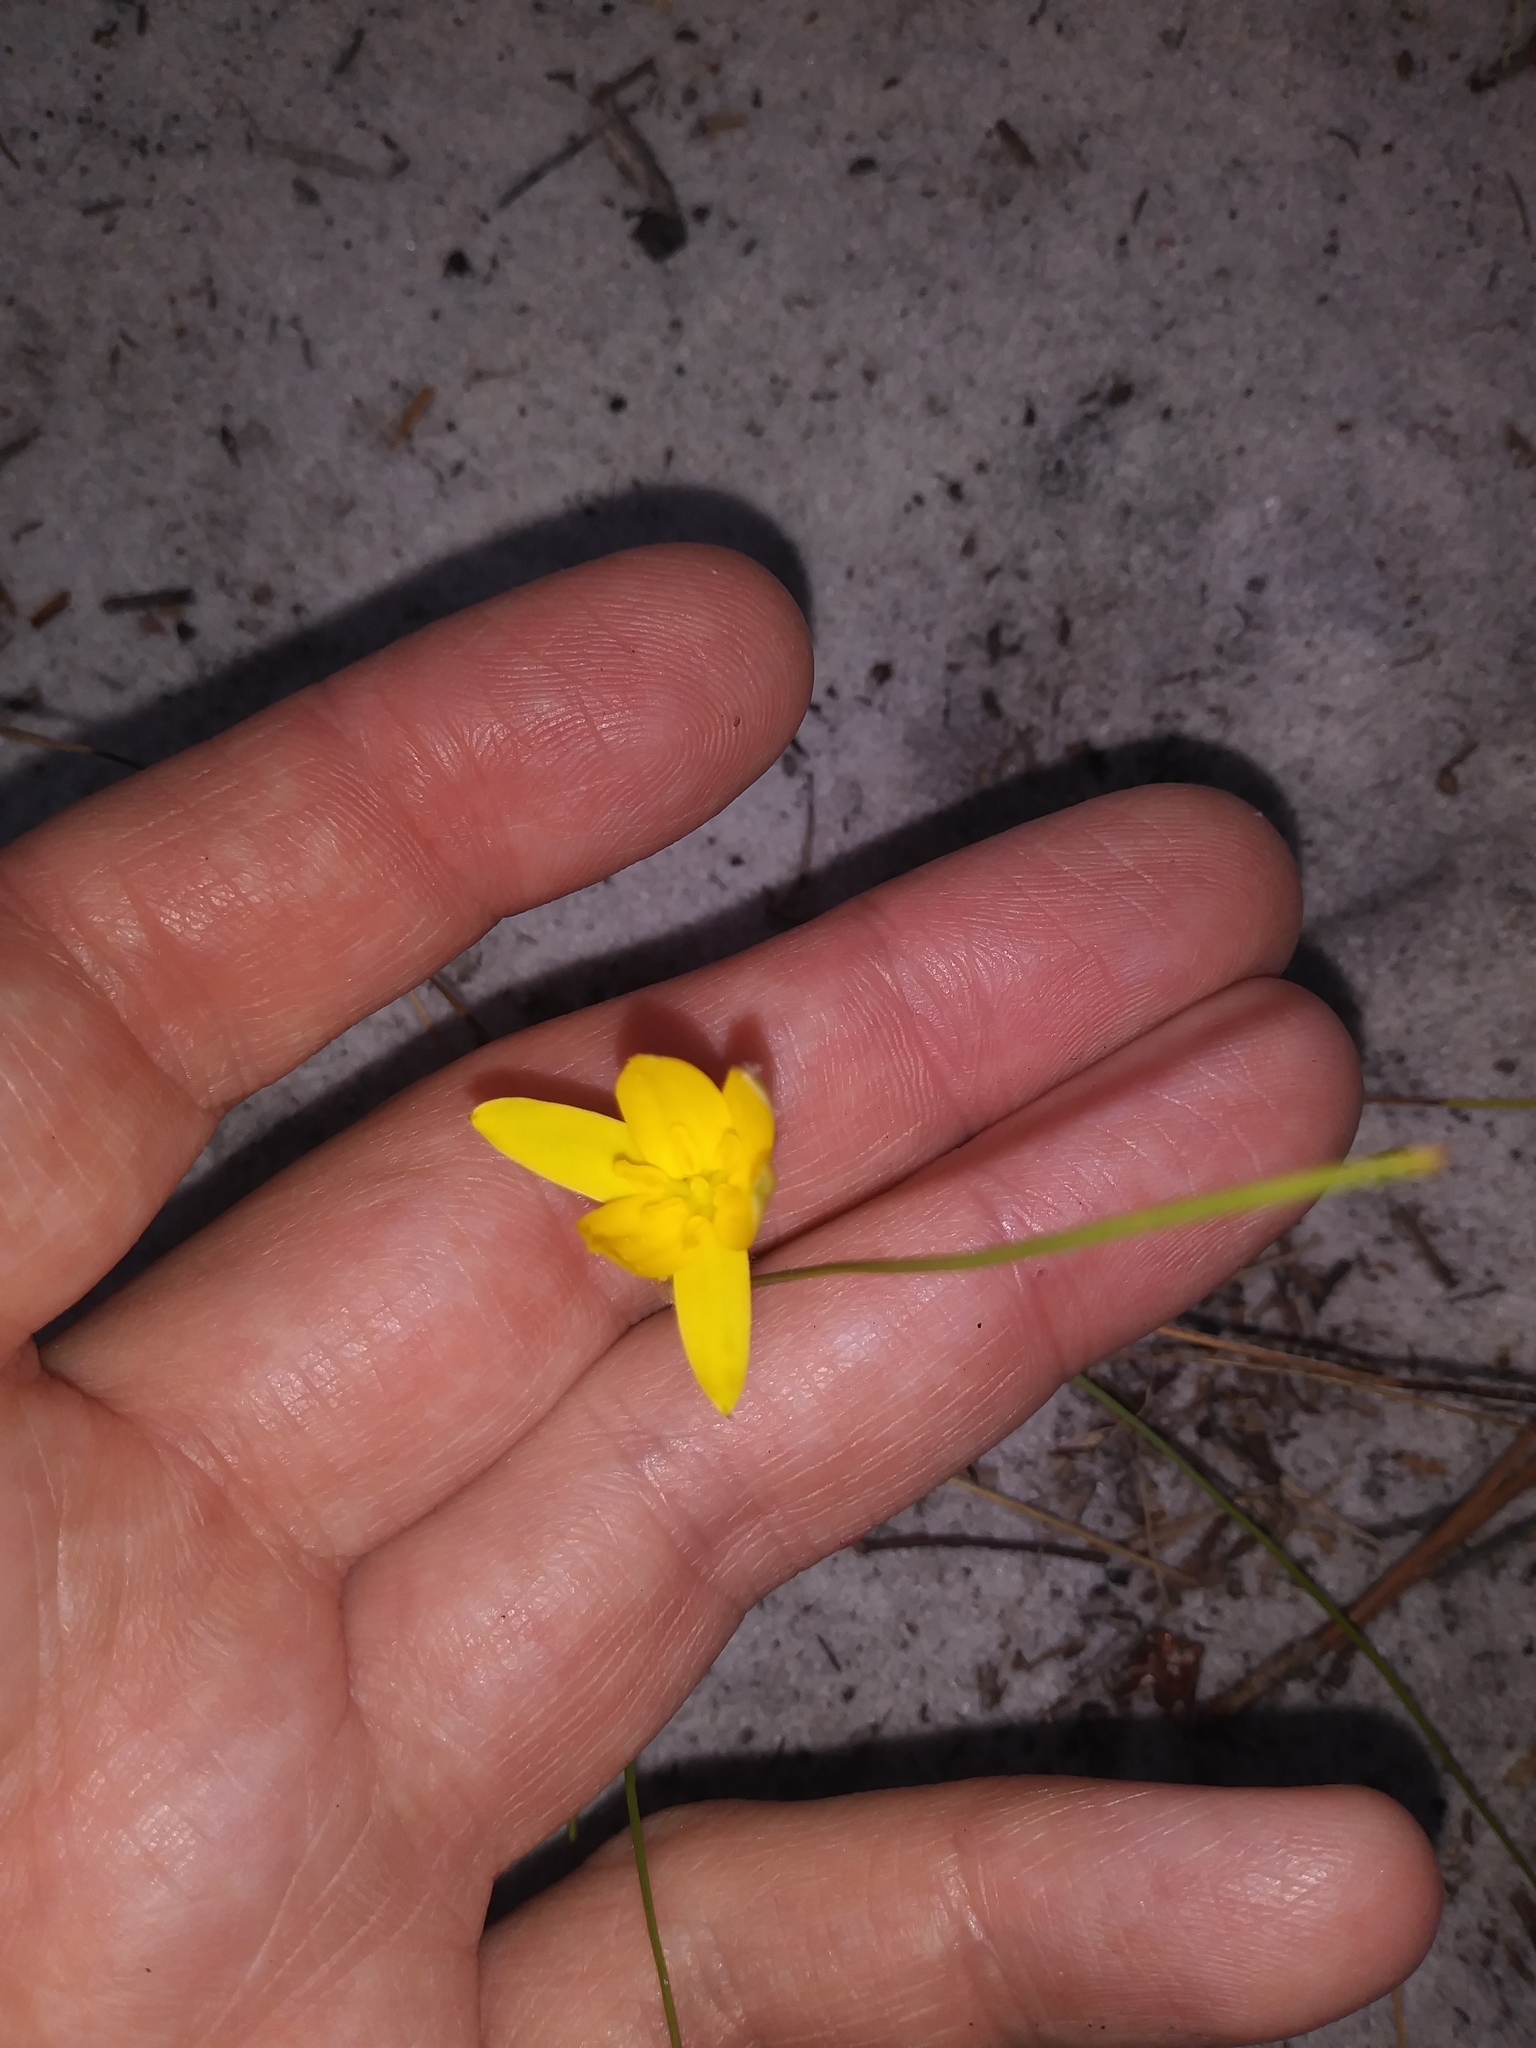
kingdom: Plantae
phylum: Tracheophyta
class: Liliopsida
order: Asparagales
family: Hypoxidaceae
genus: Hypoxis
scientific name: Hypoxis juncea
